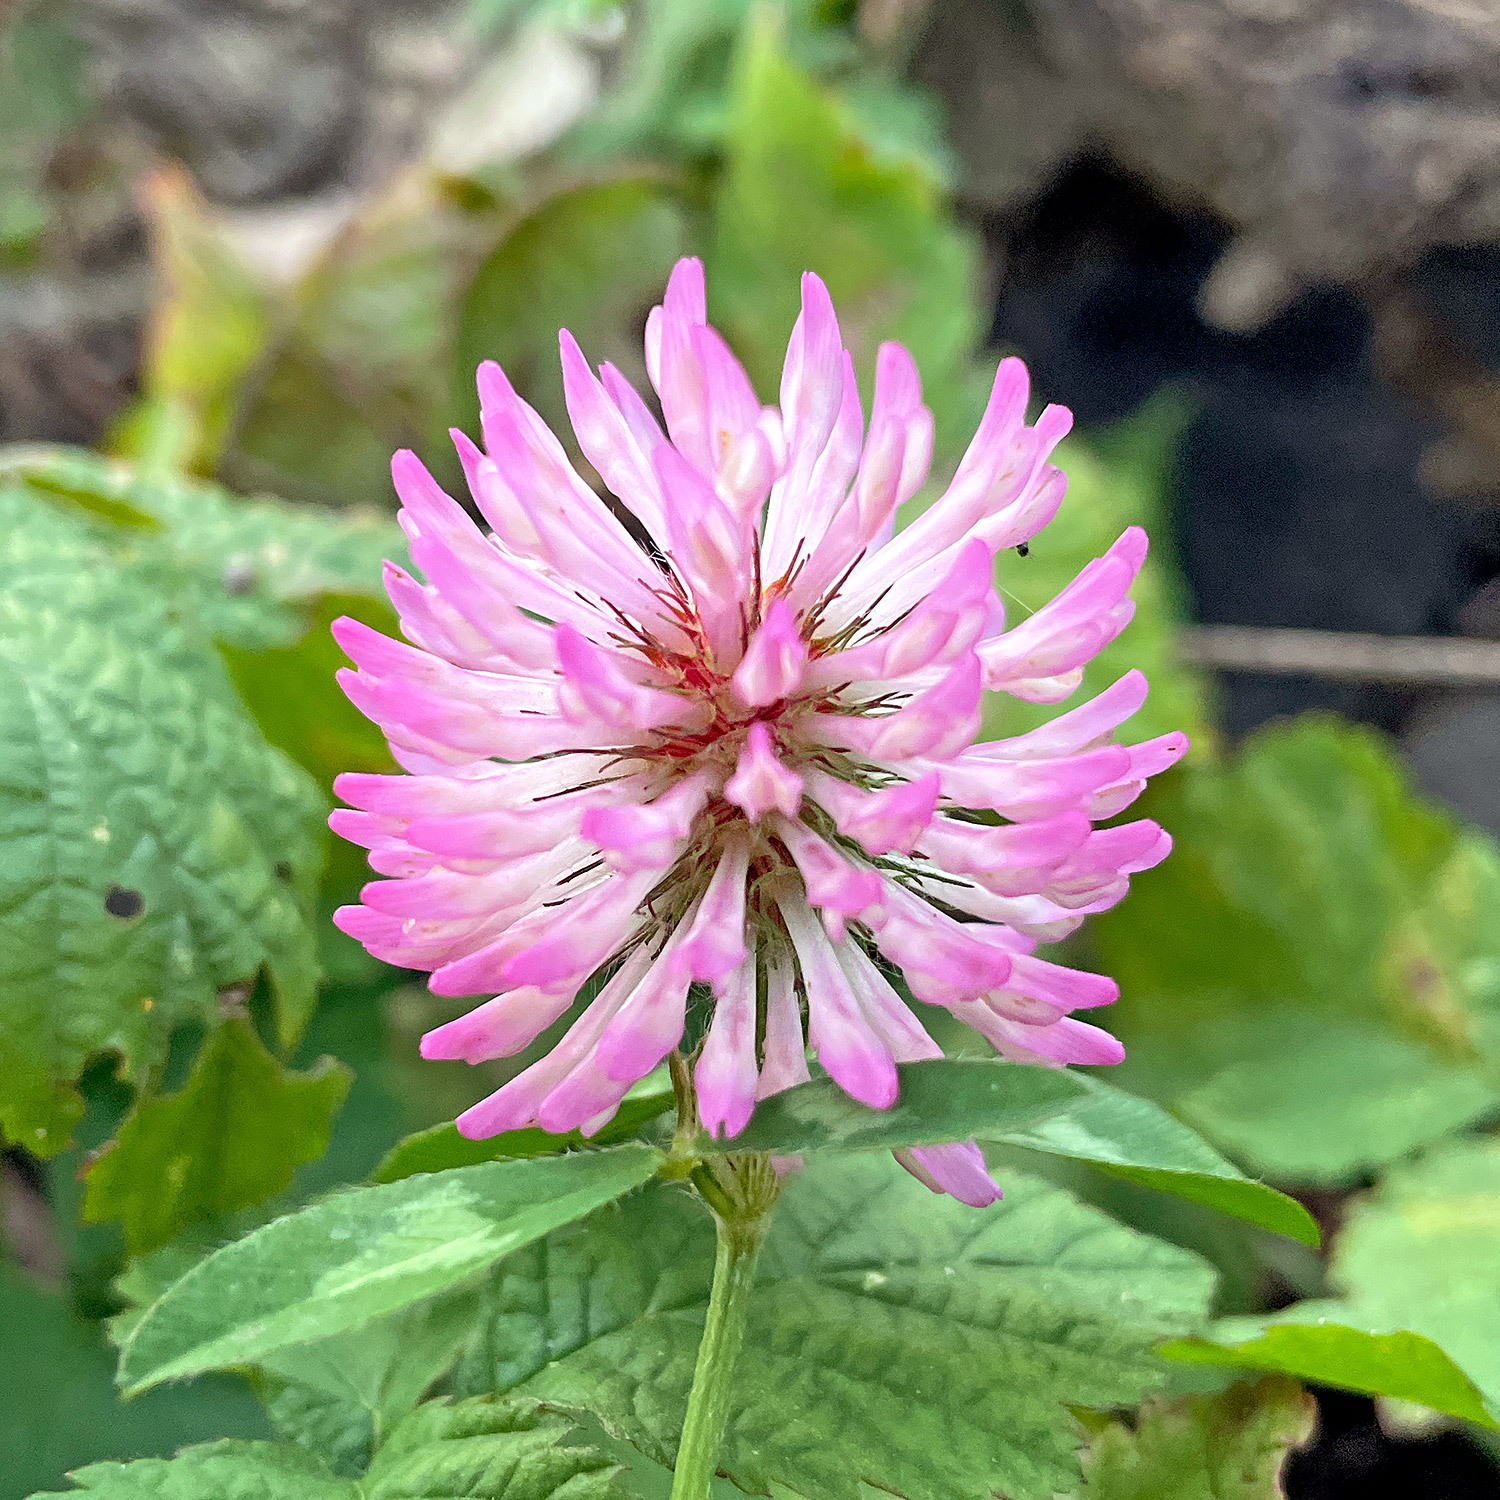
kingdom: Plantae
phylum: Tracheophyta
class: Magnoliopsida
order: Fabales
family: Fabaceae
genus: Trifolium
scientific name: Trifolium pratense
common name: Red clover
